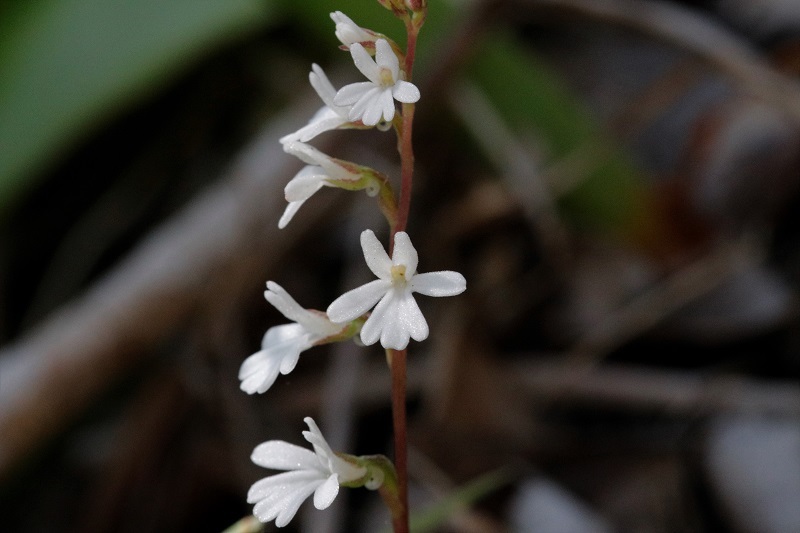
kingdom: Plantae
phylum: Tracheophyta
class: Liliopsida
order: Asparagales
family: Orchidaceae
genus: Holothrix
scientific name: Holothrix parviflora
